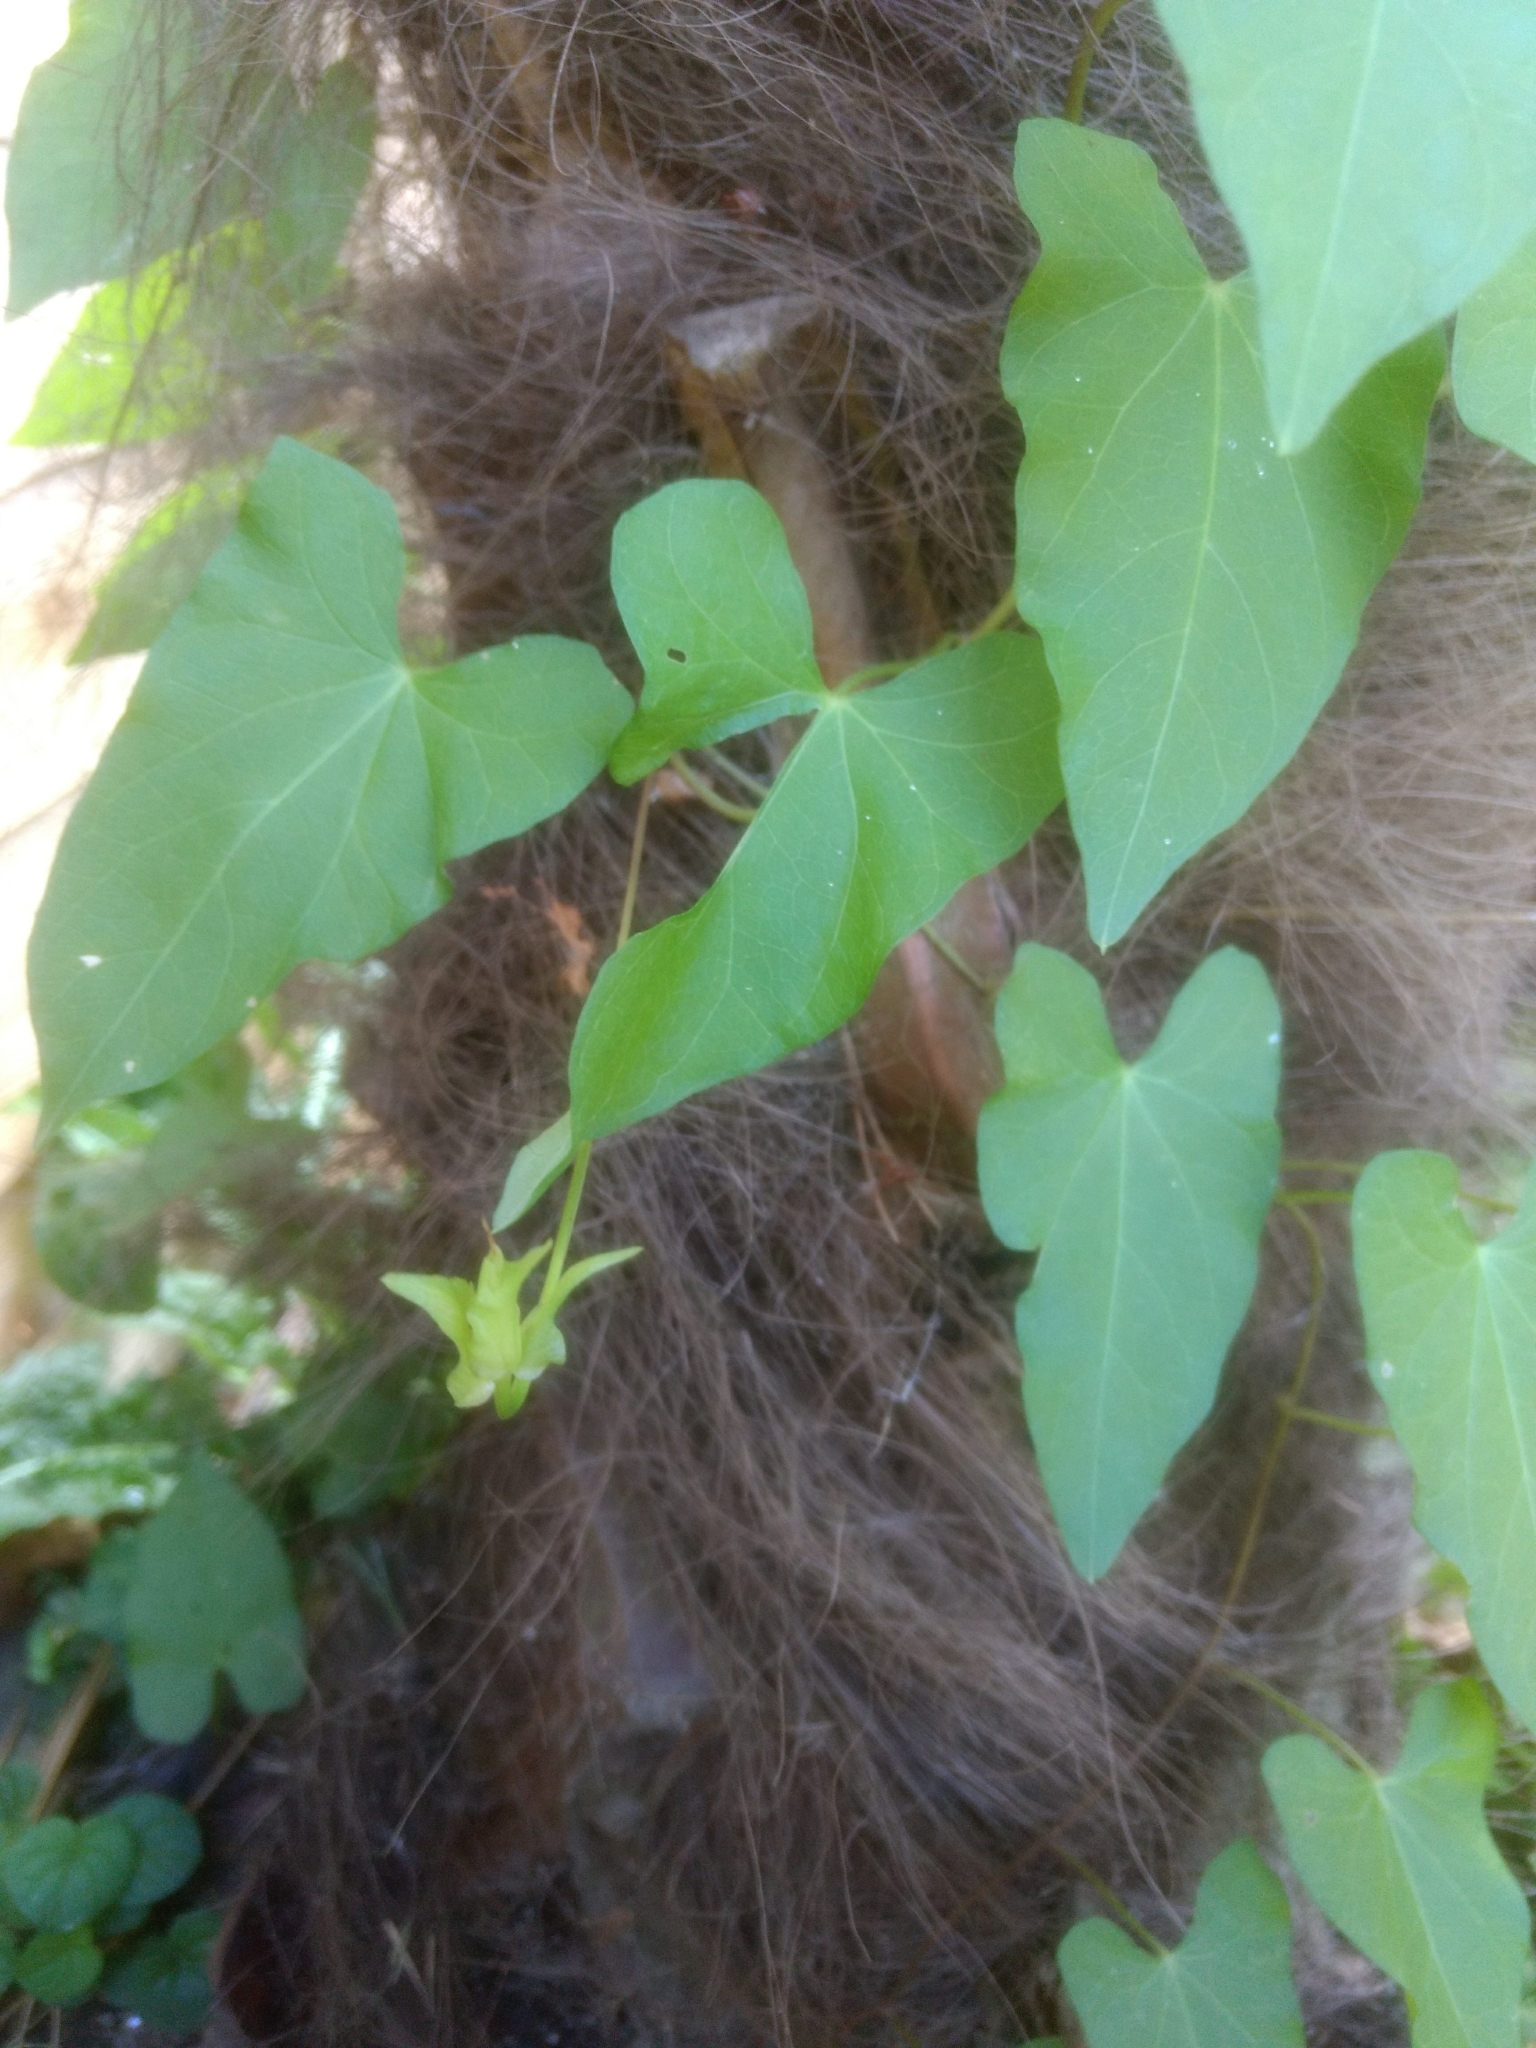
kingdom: Plantae
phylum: Tracheophyta
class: Magnoliopsida
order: Solanales
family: Convolvulaceae
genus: Calystegia
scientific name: Calystegia sepium
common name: Hedge bindweed
